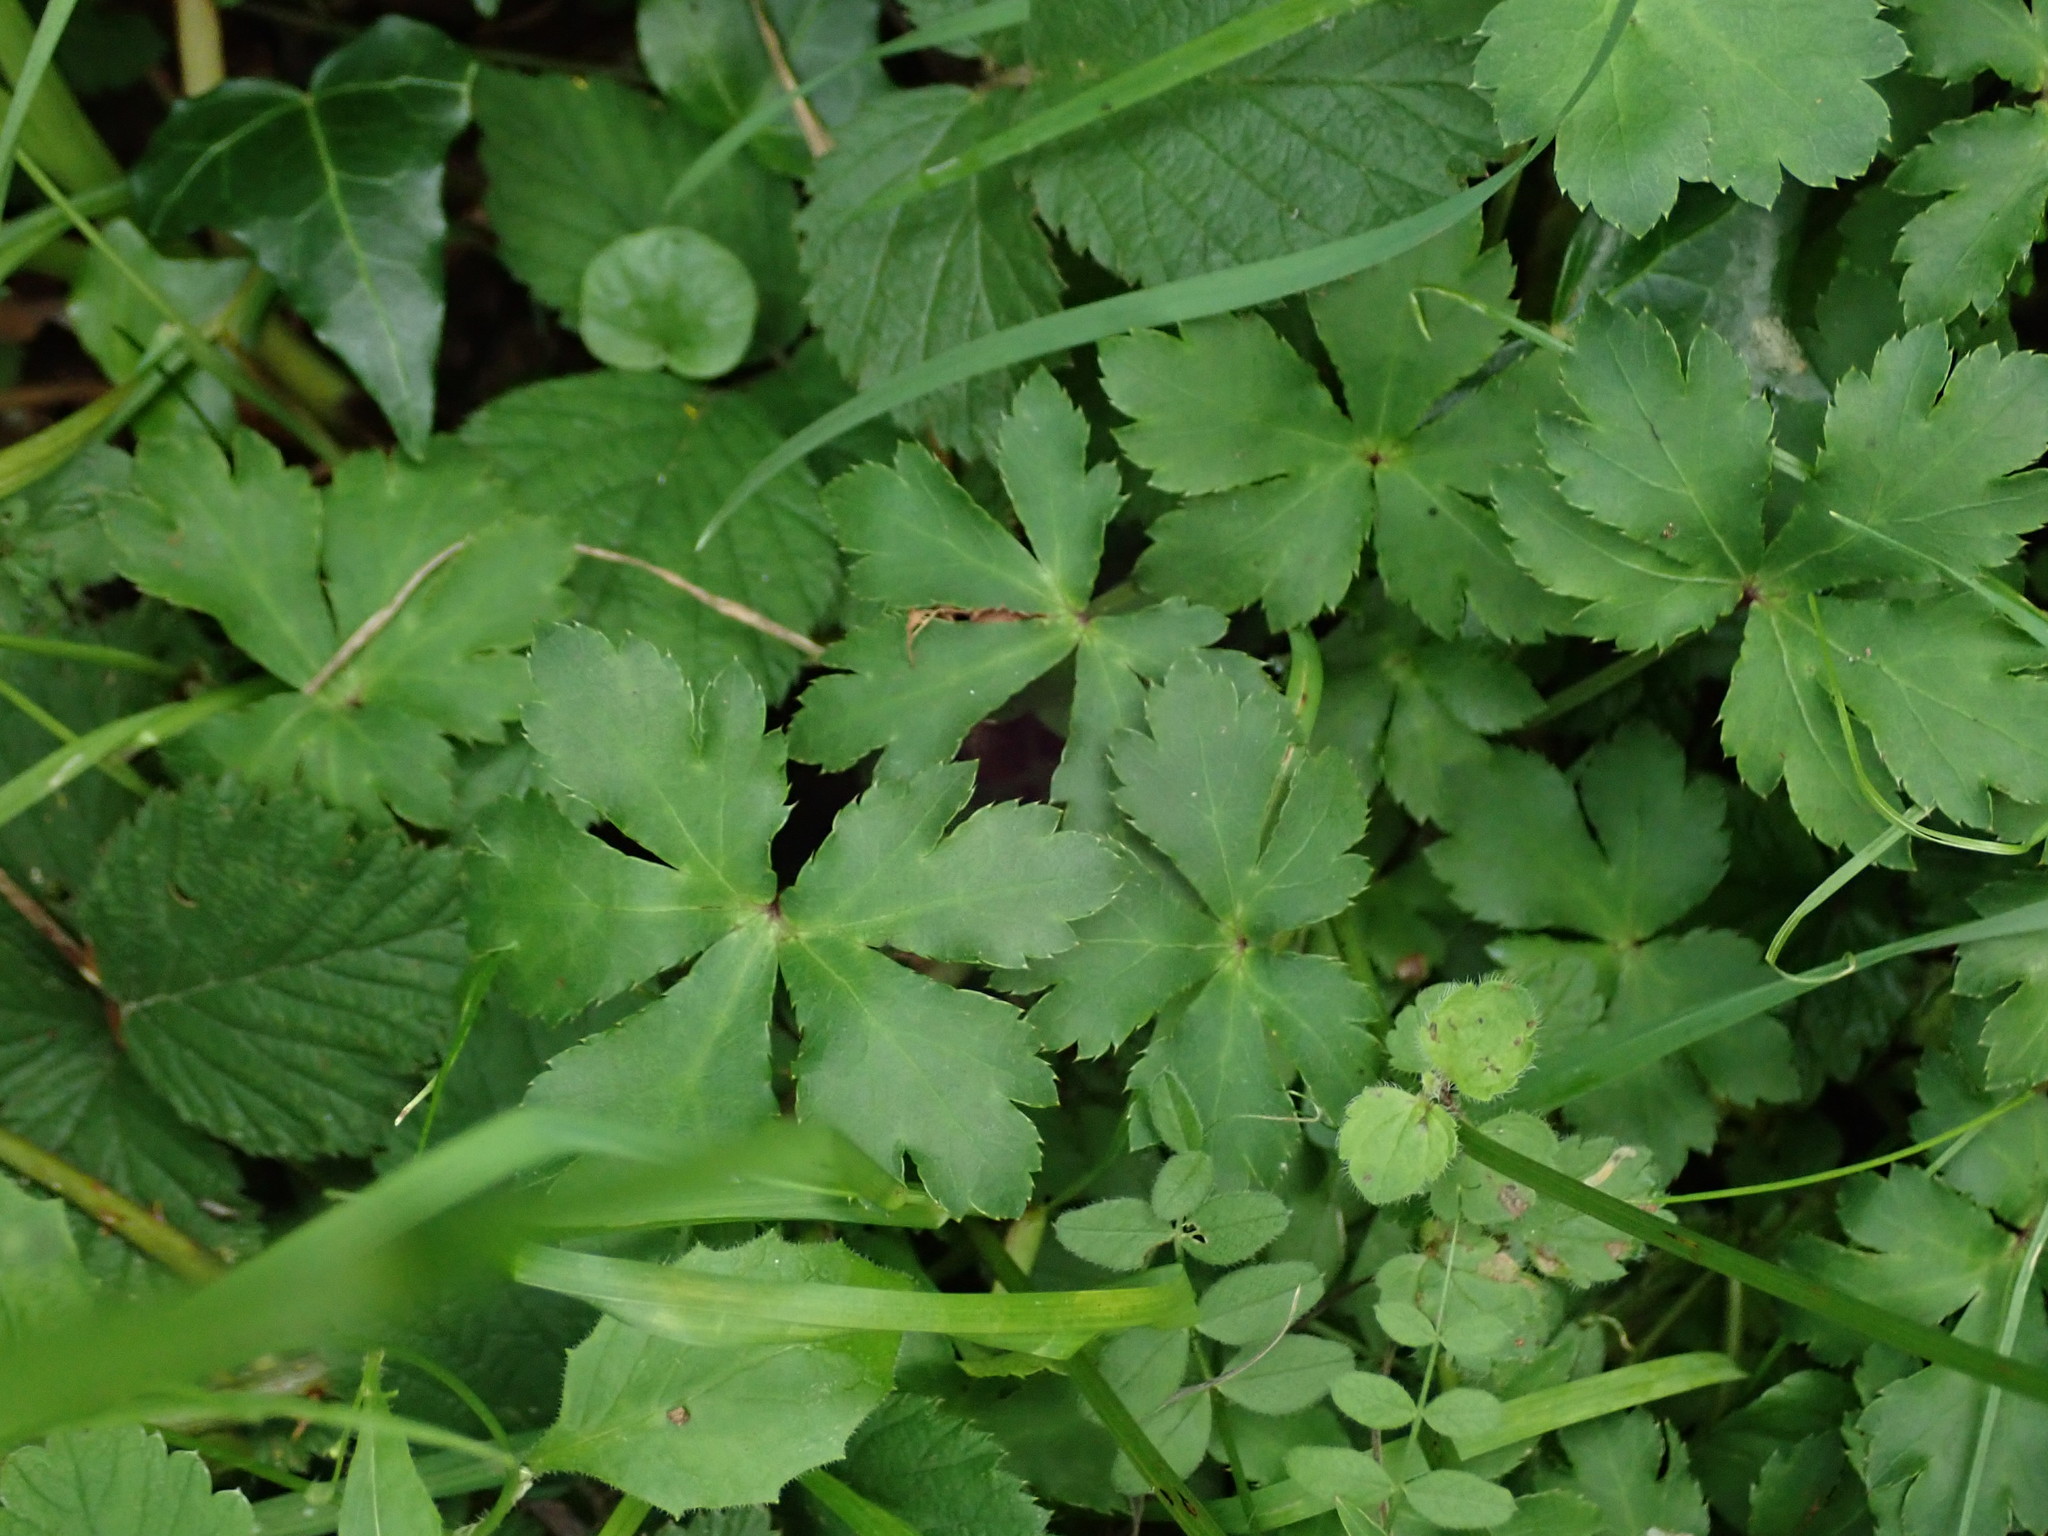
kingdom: Plantae
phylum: Tracheophyta
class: Magnoliopsida
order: Apiales
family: Apiaceae
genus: Sanicula
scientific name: Sanicula europaea
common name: Sanicle
